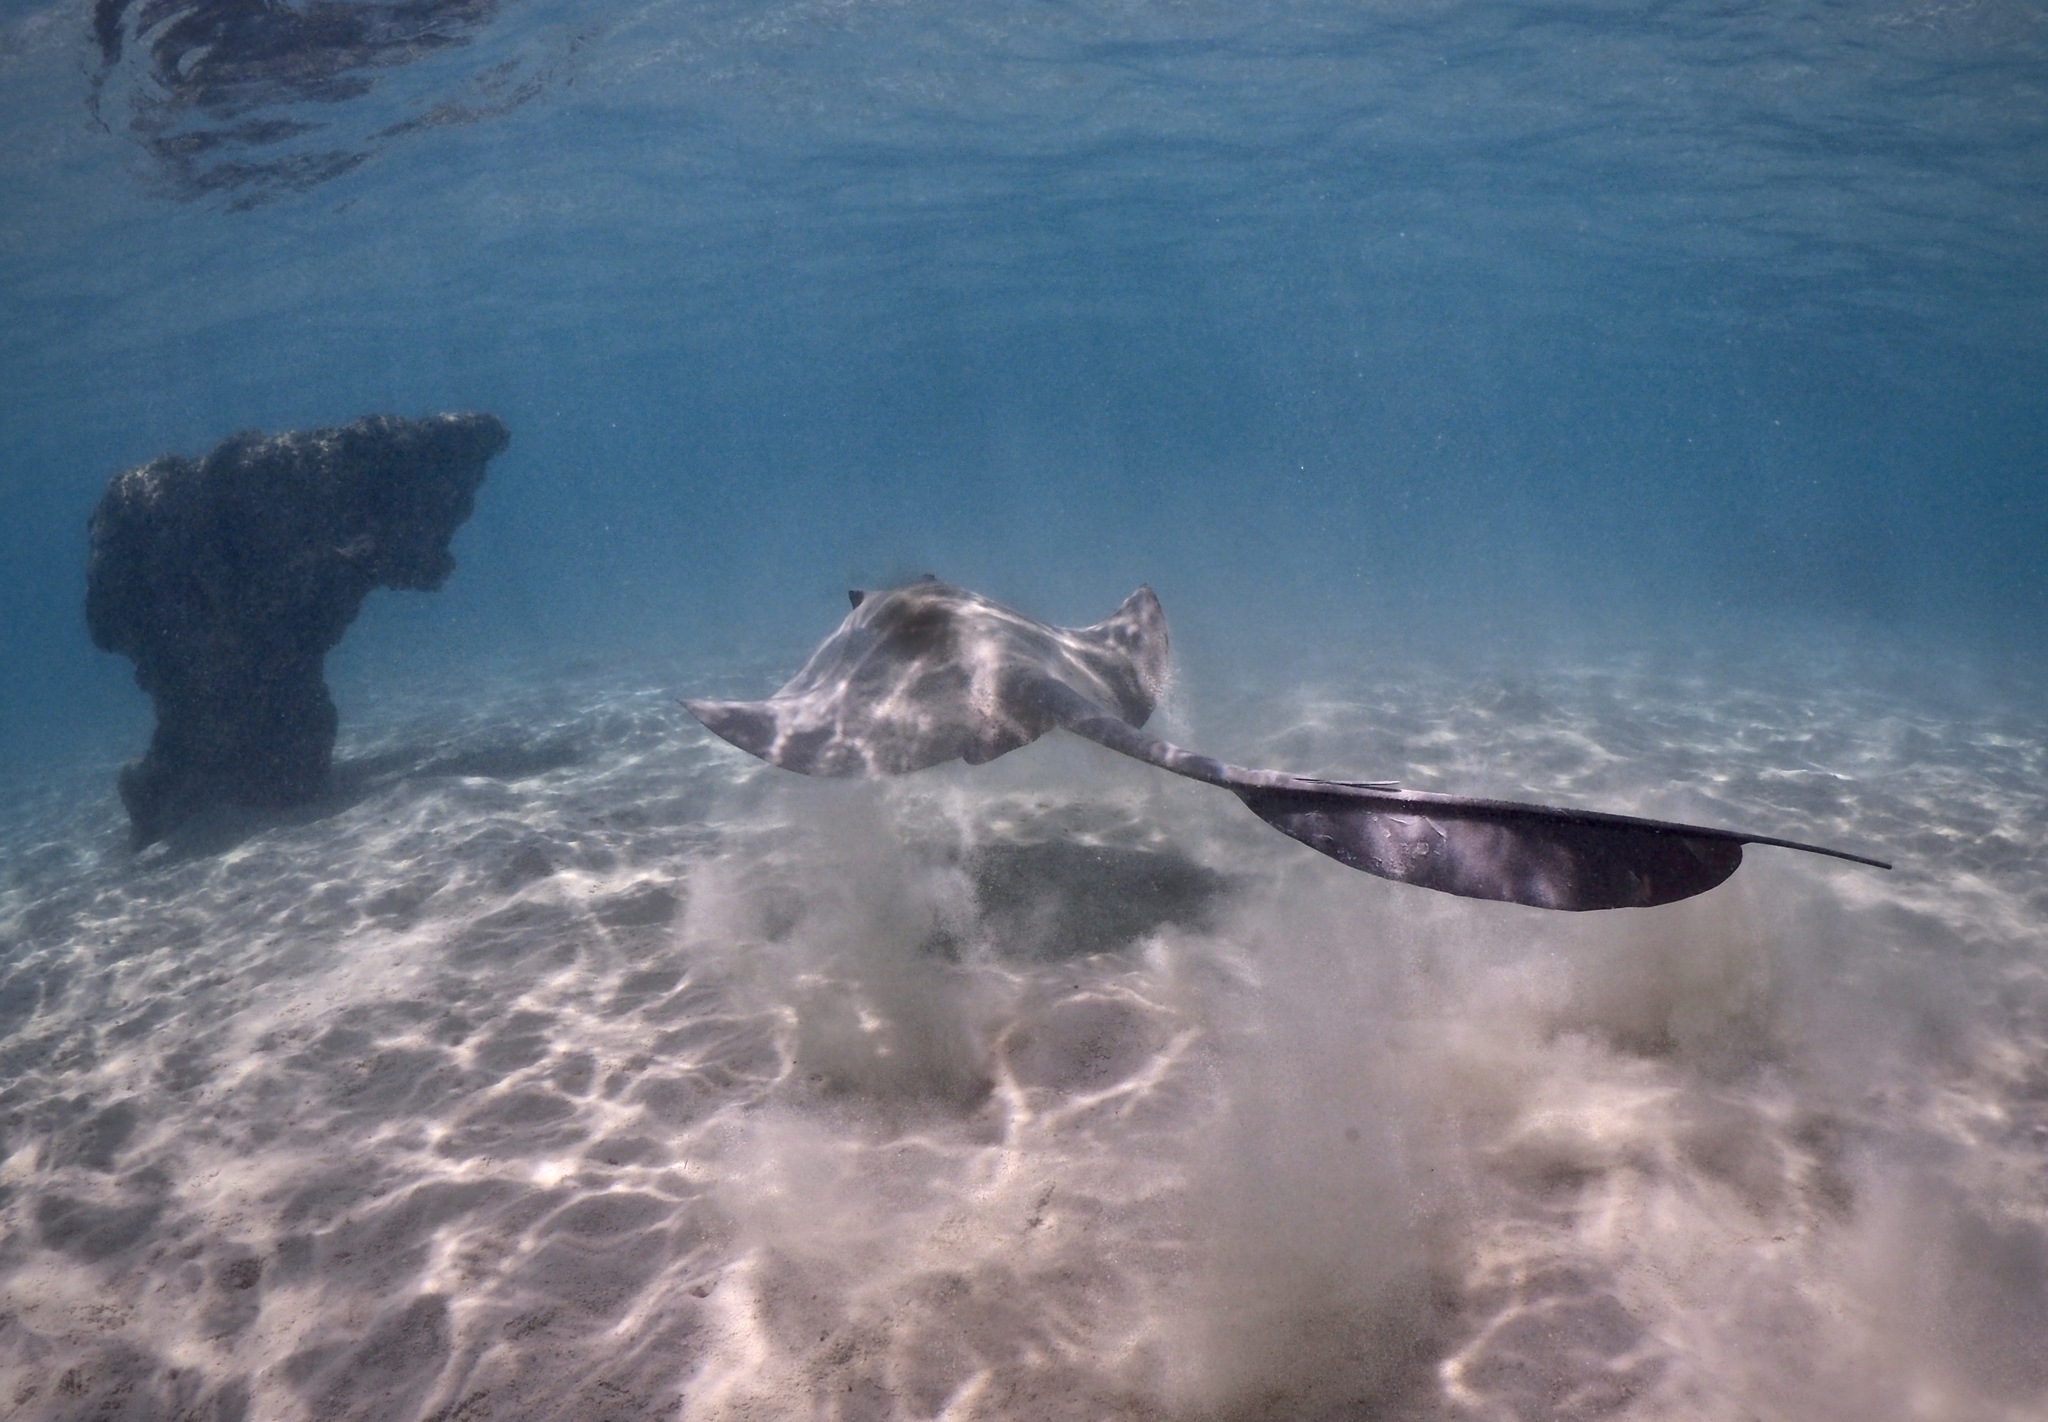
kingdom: Animalia
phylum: Chordata
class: Elasmobranchii
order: Myliobatiformes
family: Dasyatidae
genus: Pastinachus
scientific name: Pastinachus sephen
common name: Cowtail ray
